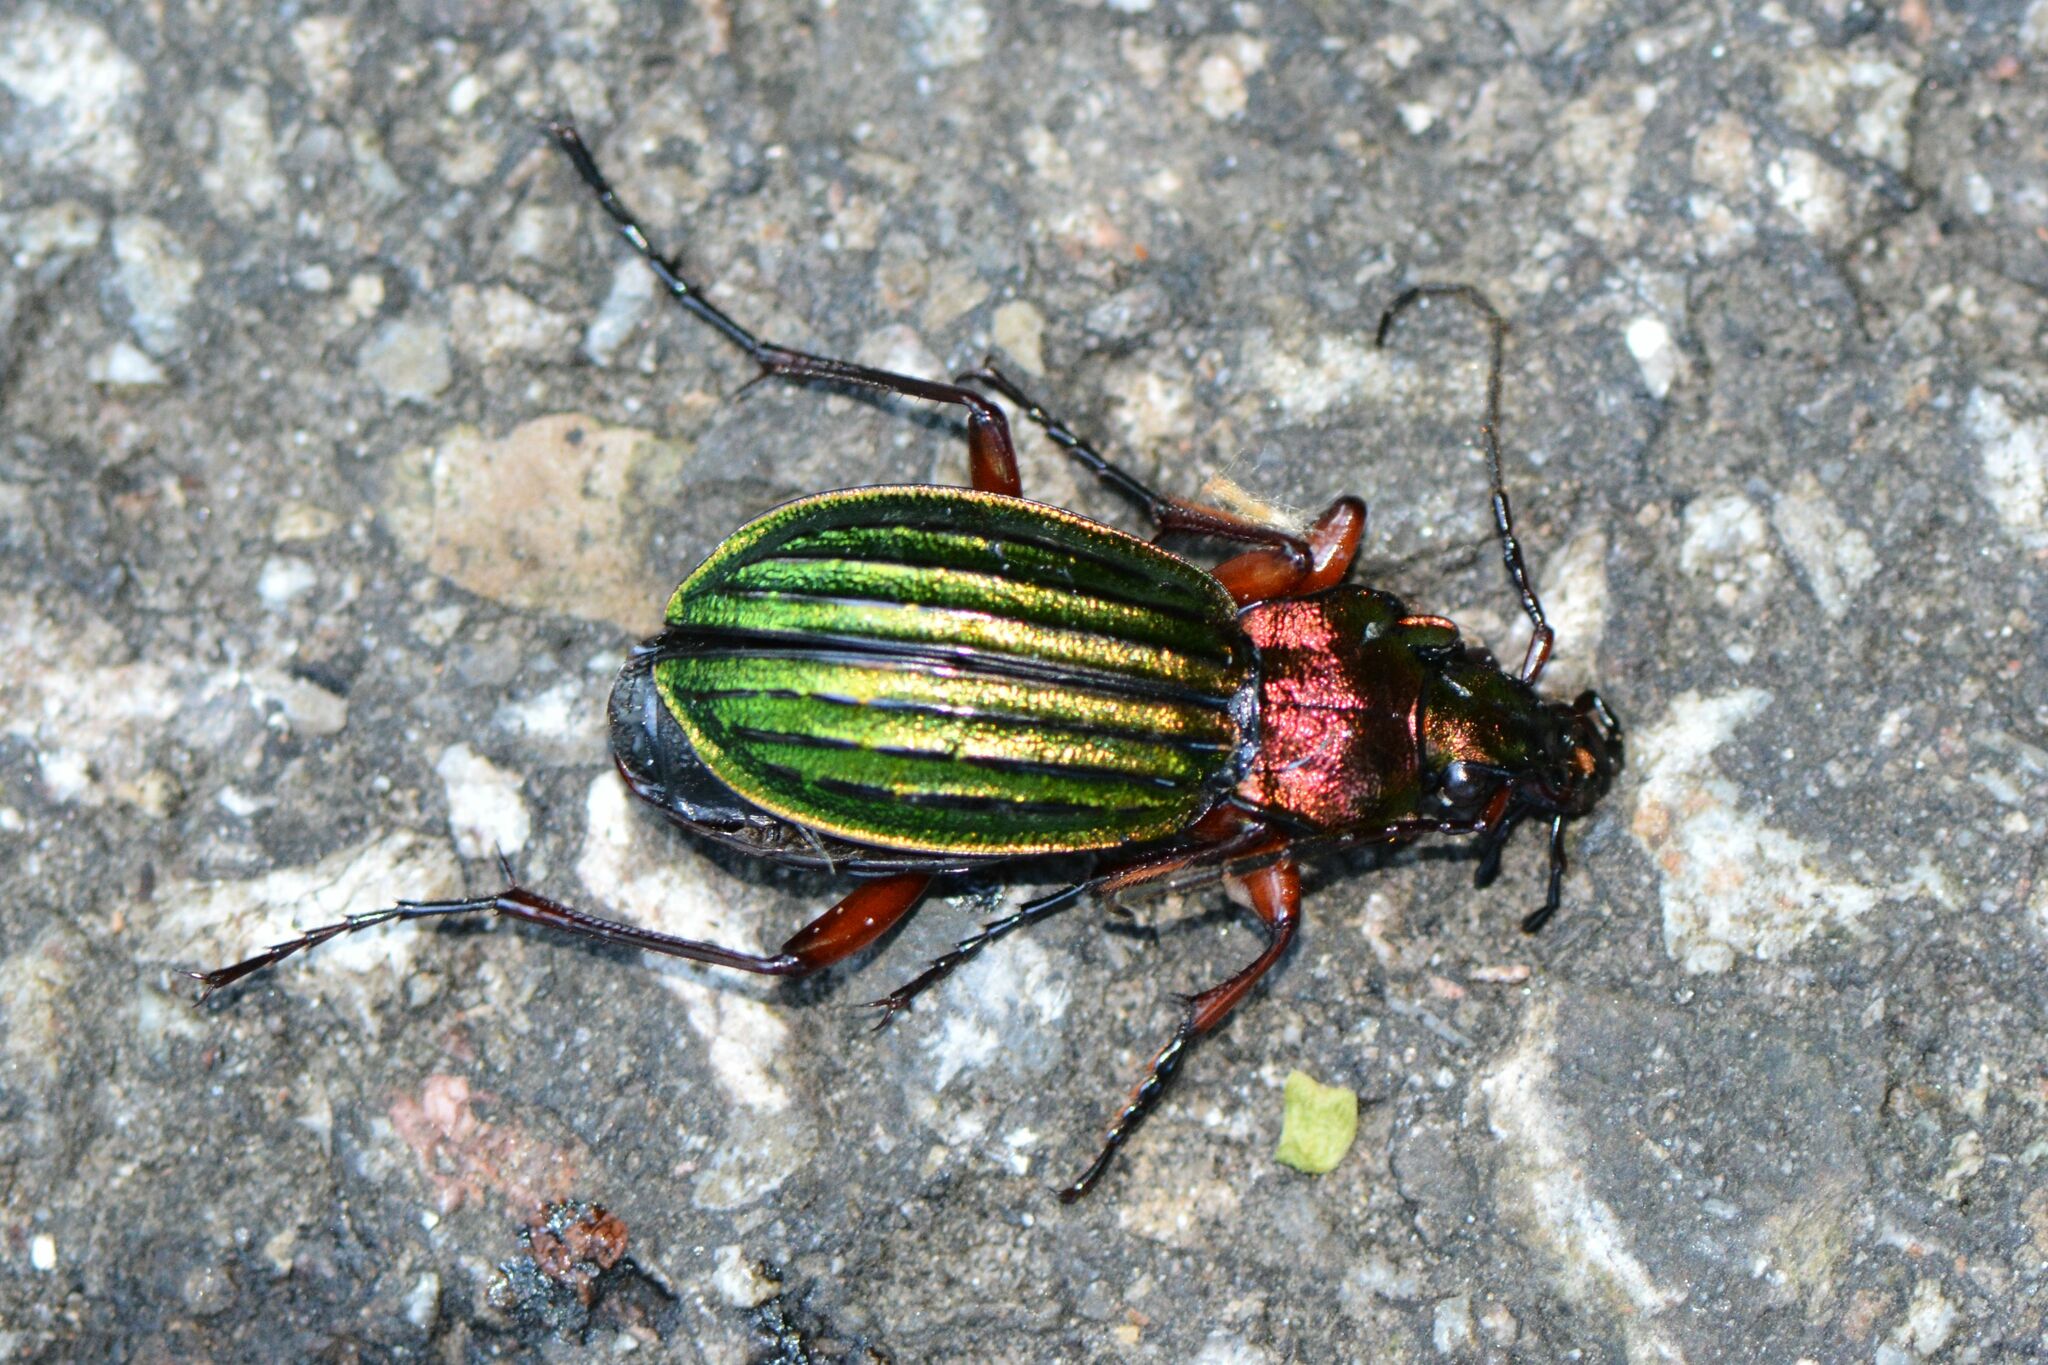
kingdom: Animalia
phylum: Arthropoda
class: Insecta
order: Coleoptera
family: Carabidae
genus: Carabus
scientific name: Carabus auronitens
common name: Carabus auronitens
